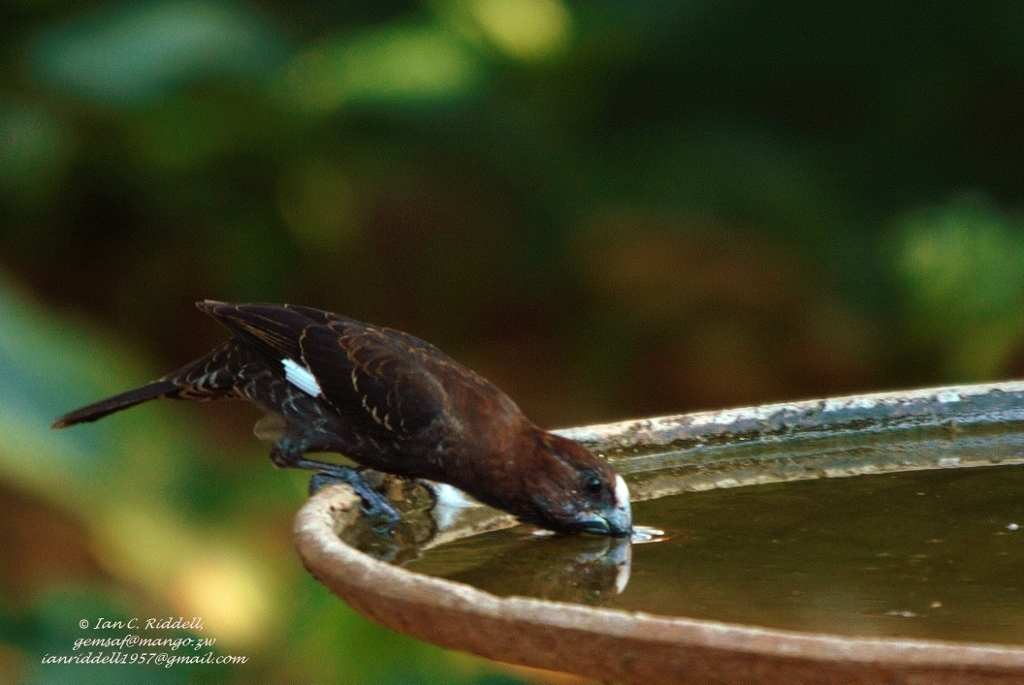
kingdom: Animalia
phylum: Chordata
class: Aves
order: Passeriformes
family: Ploceidae
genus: Amblyospiza
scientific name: Amblyospiza albifrons
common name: Thick-billed weaver
